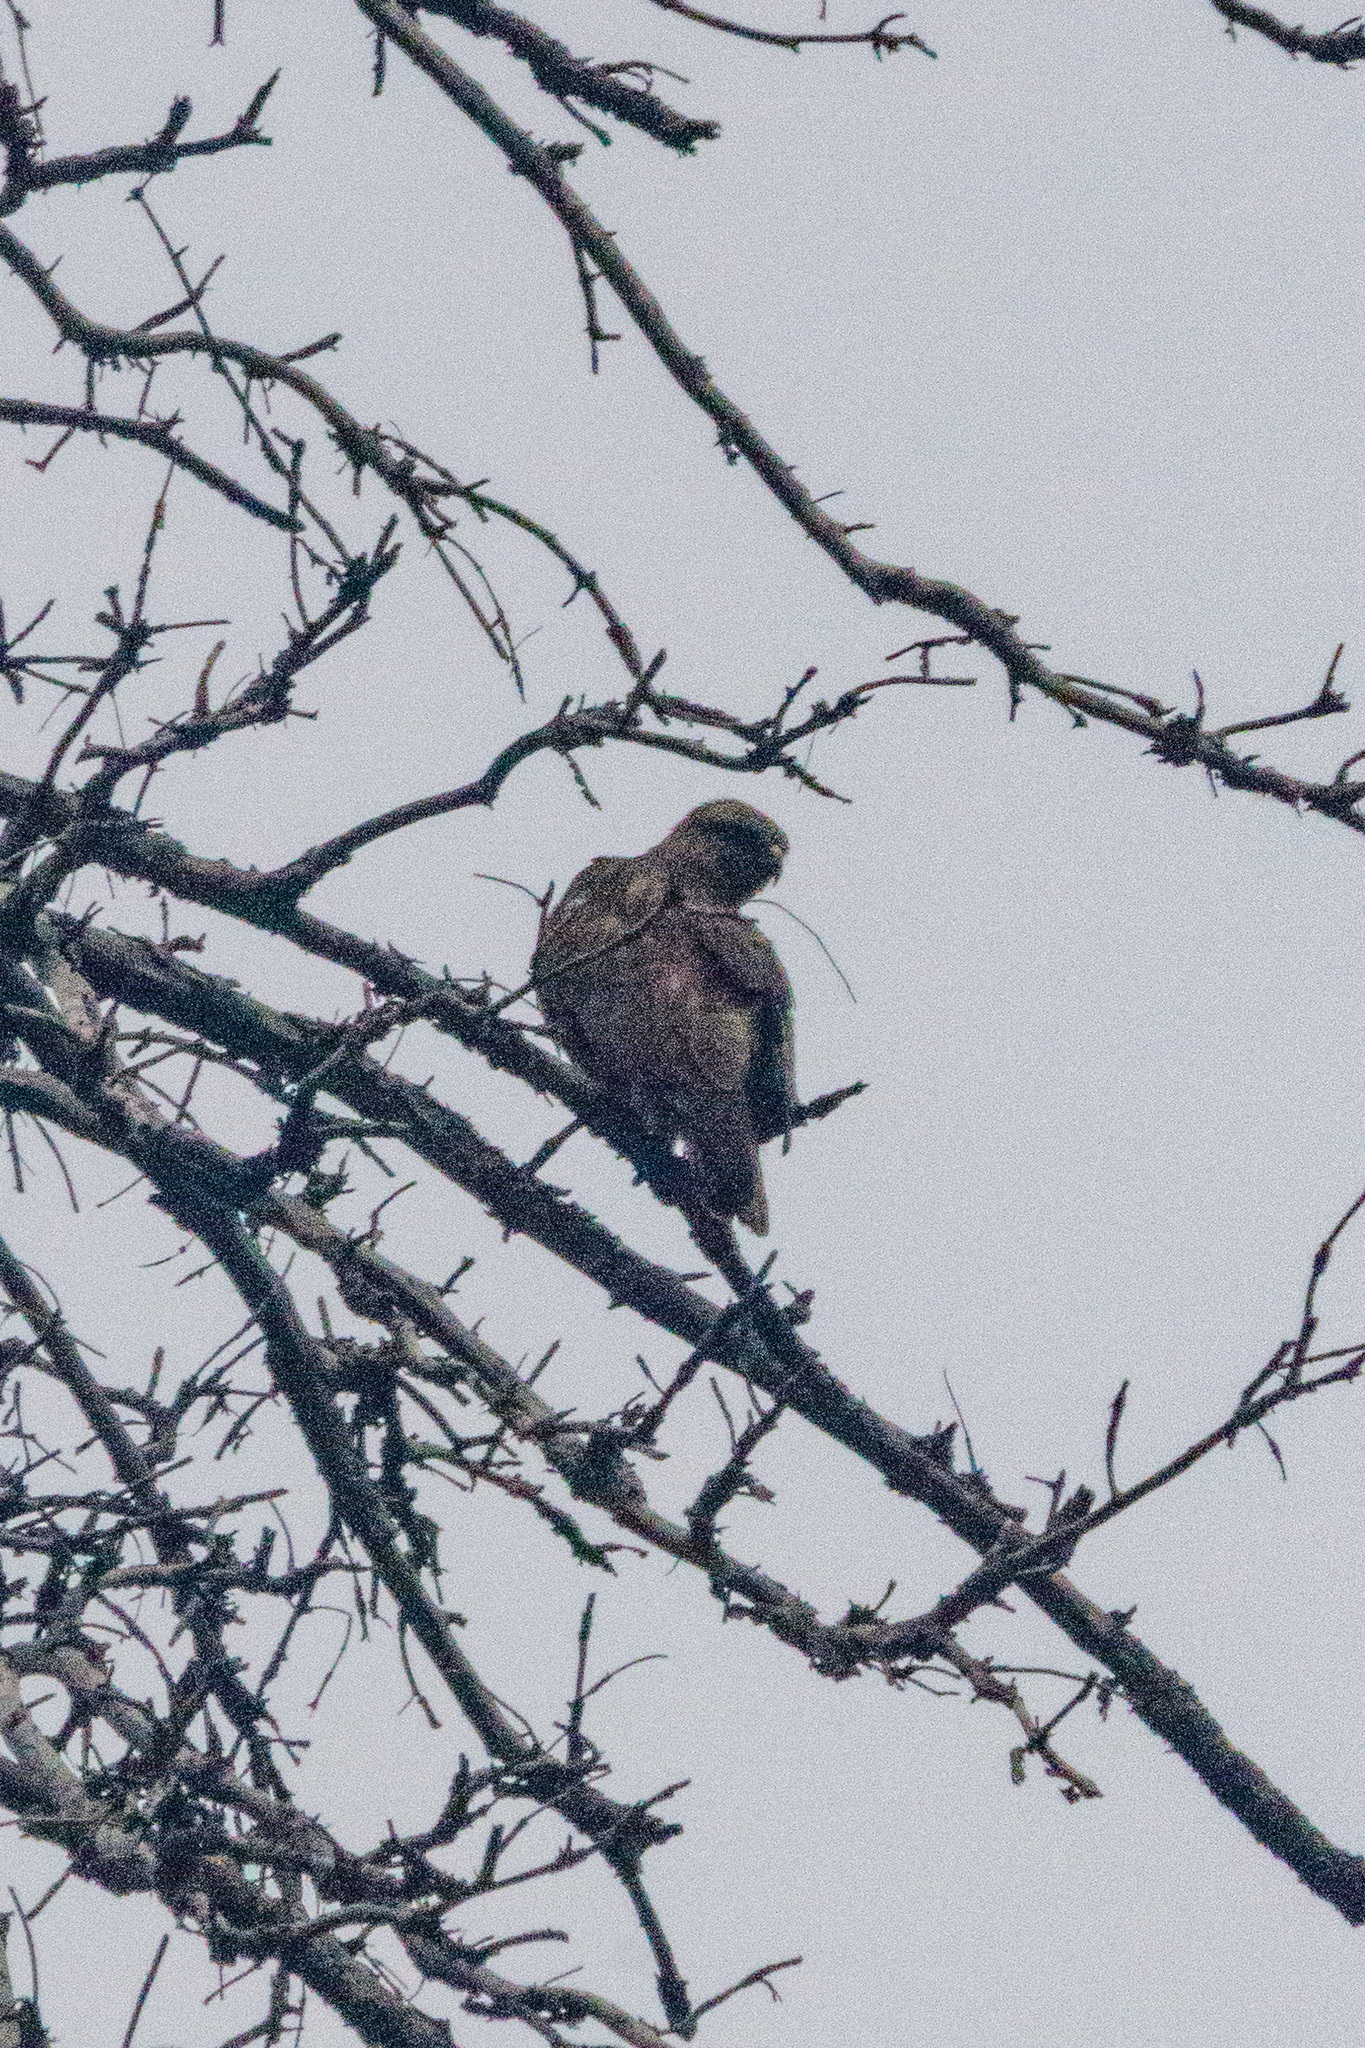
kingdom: Animalia
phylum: Chordata
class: Aves
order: Accipitriformes
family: Accipitridae
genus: Buteo
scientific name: Buteo buteo
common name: Common buzzard
